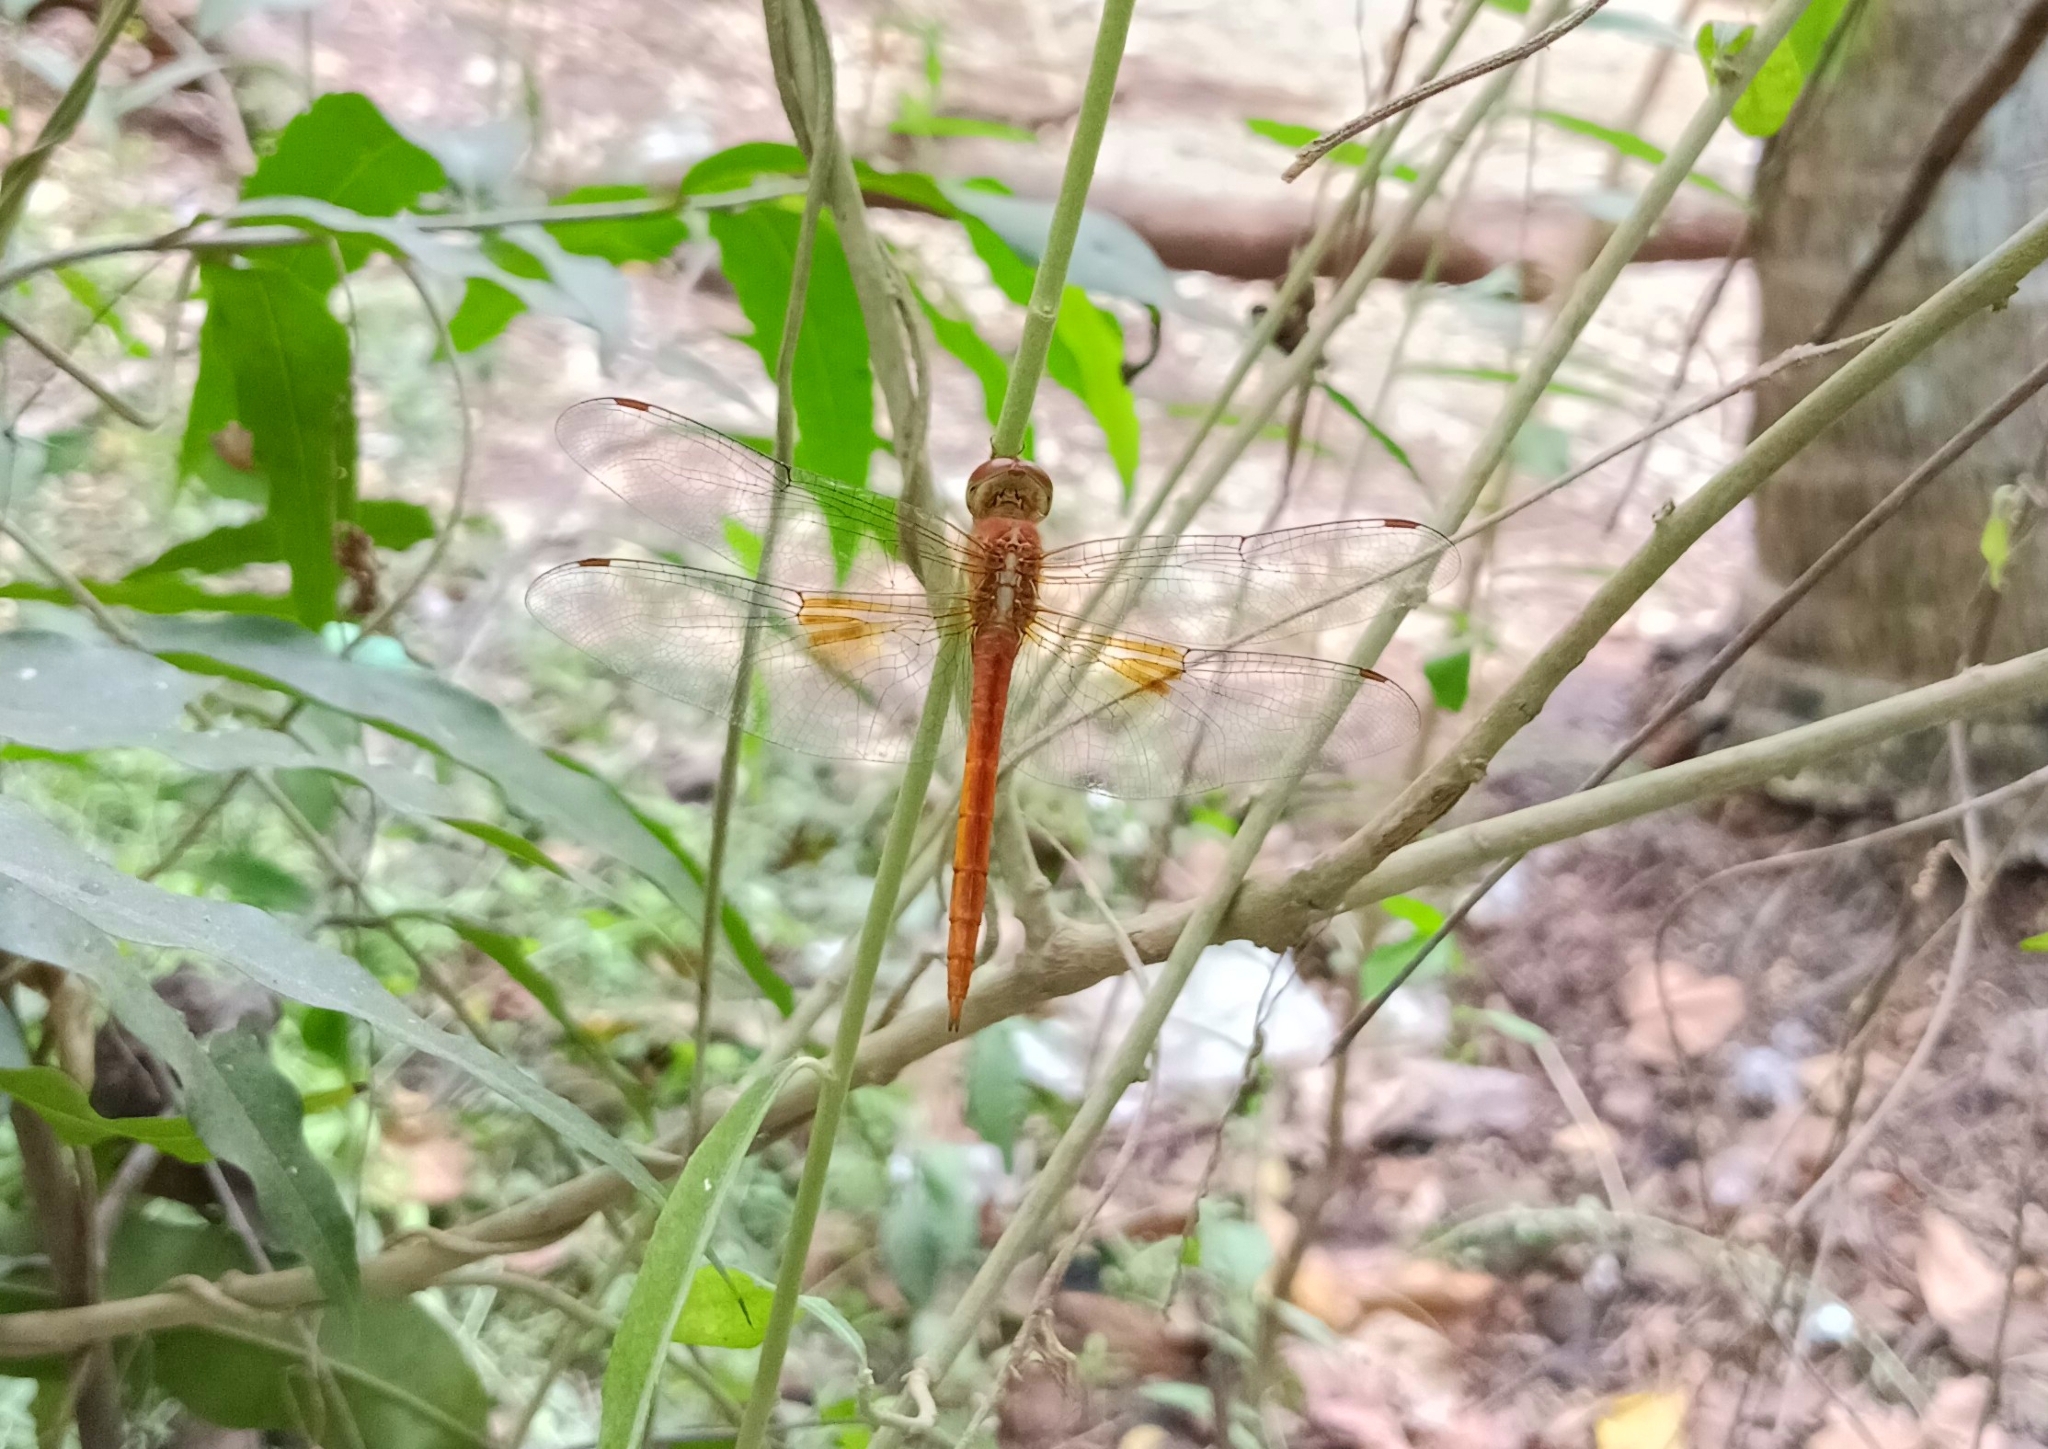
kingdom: Animalia
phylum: Arthropoda
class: Insecta
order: Odonata
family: Libellulidae
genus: Tholymis
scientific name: Tholymis tillarga
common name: Coral-tailed cloud wing
